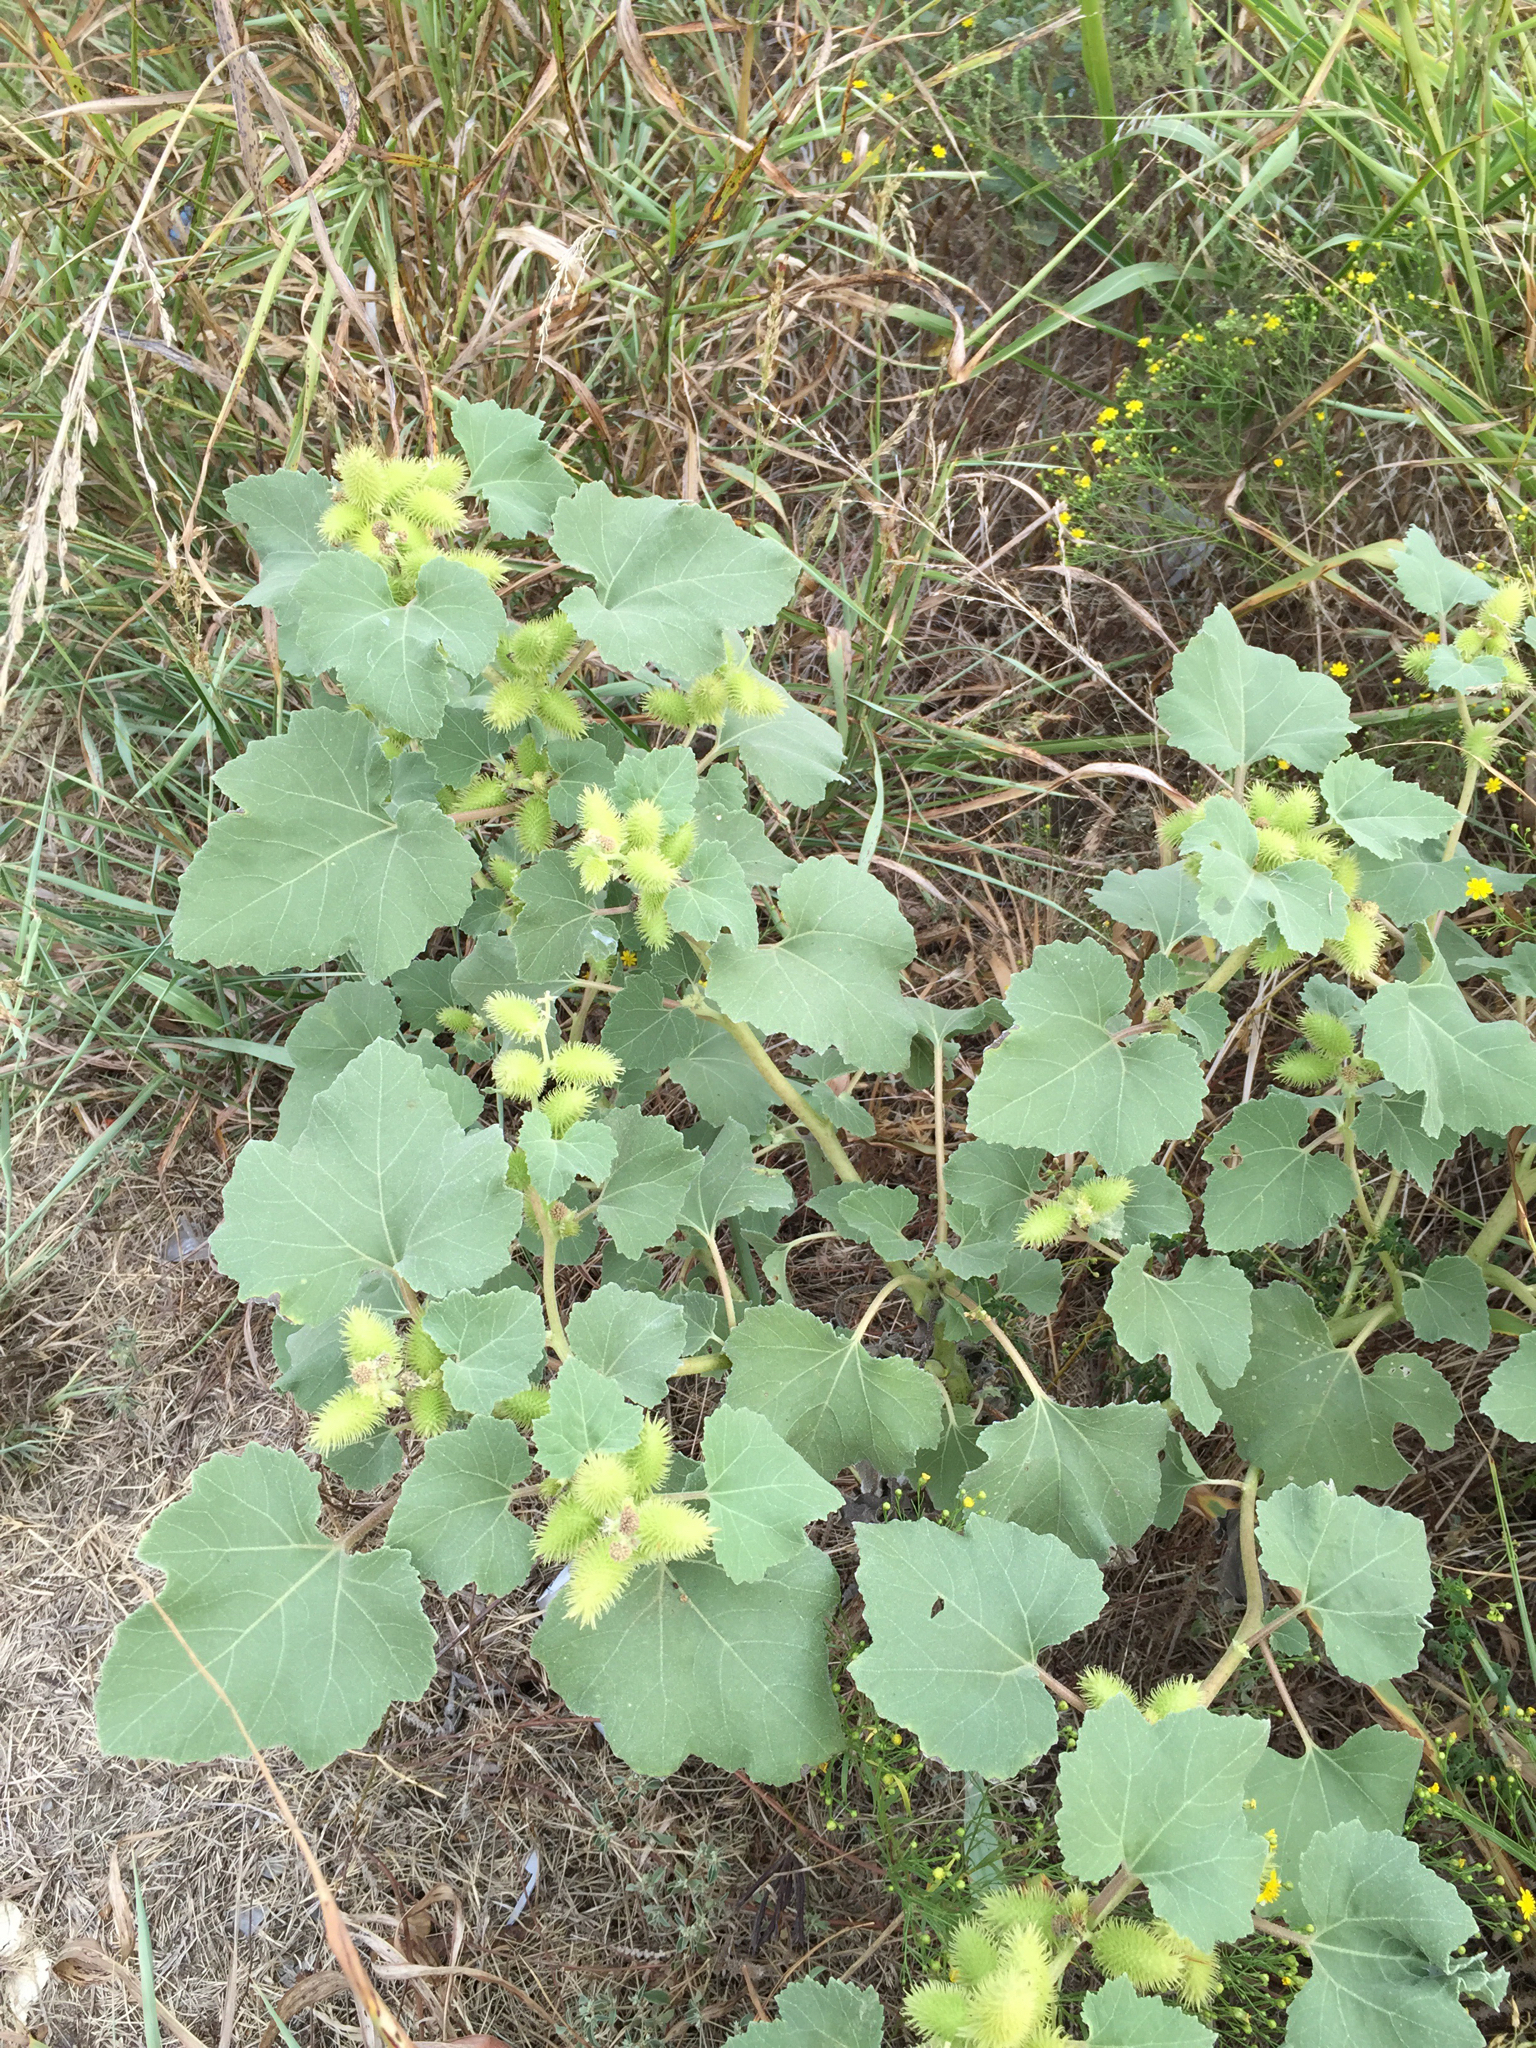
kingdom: Plantae
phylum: Tracheophyta
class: Magnoliopsida
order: Asterales
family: Asteraceae
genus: Xanthium
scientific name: Xanthium strumarium
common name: Rough cocklebur
